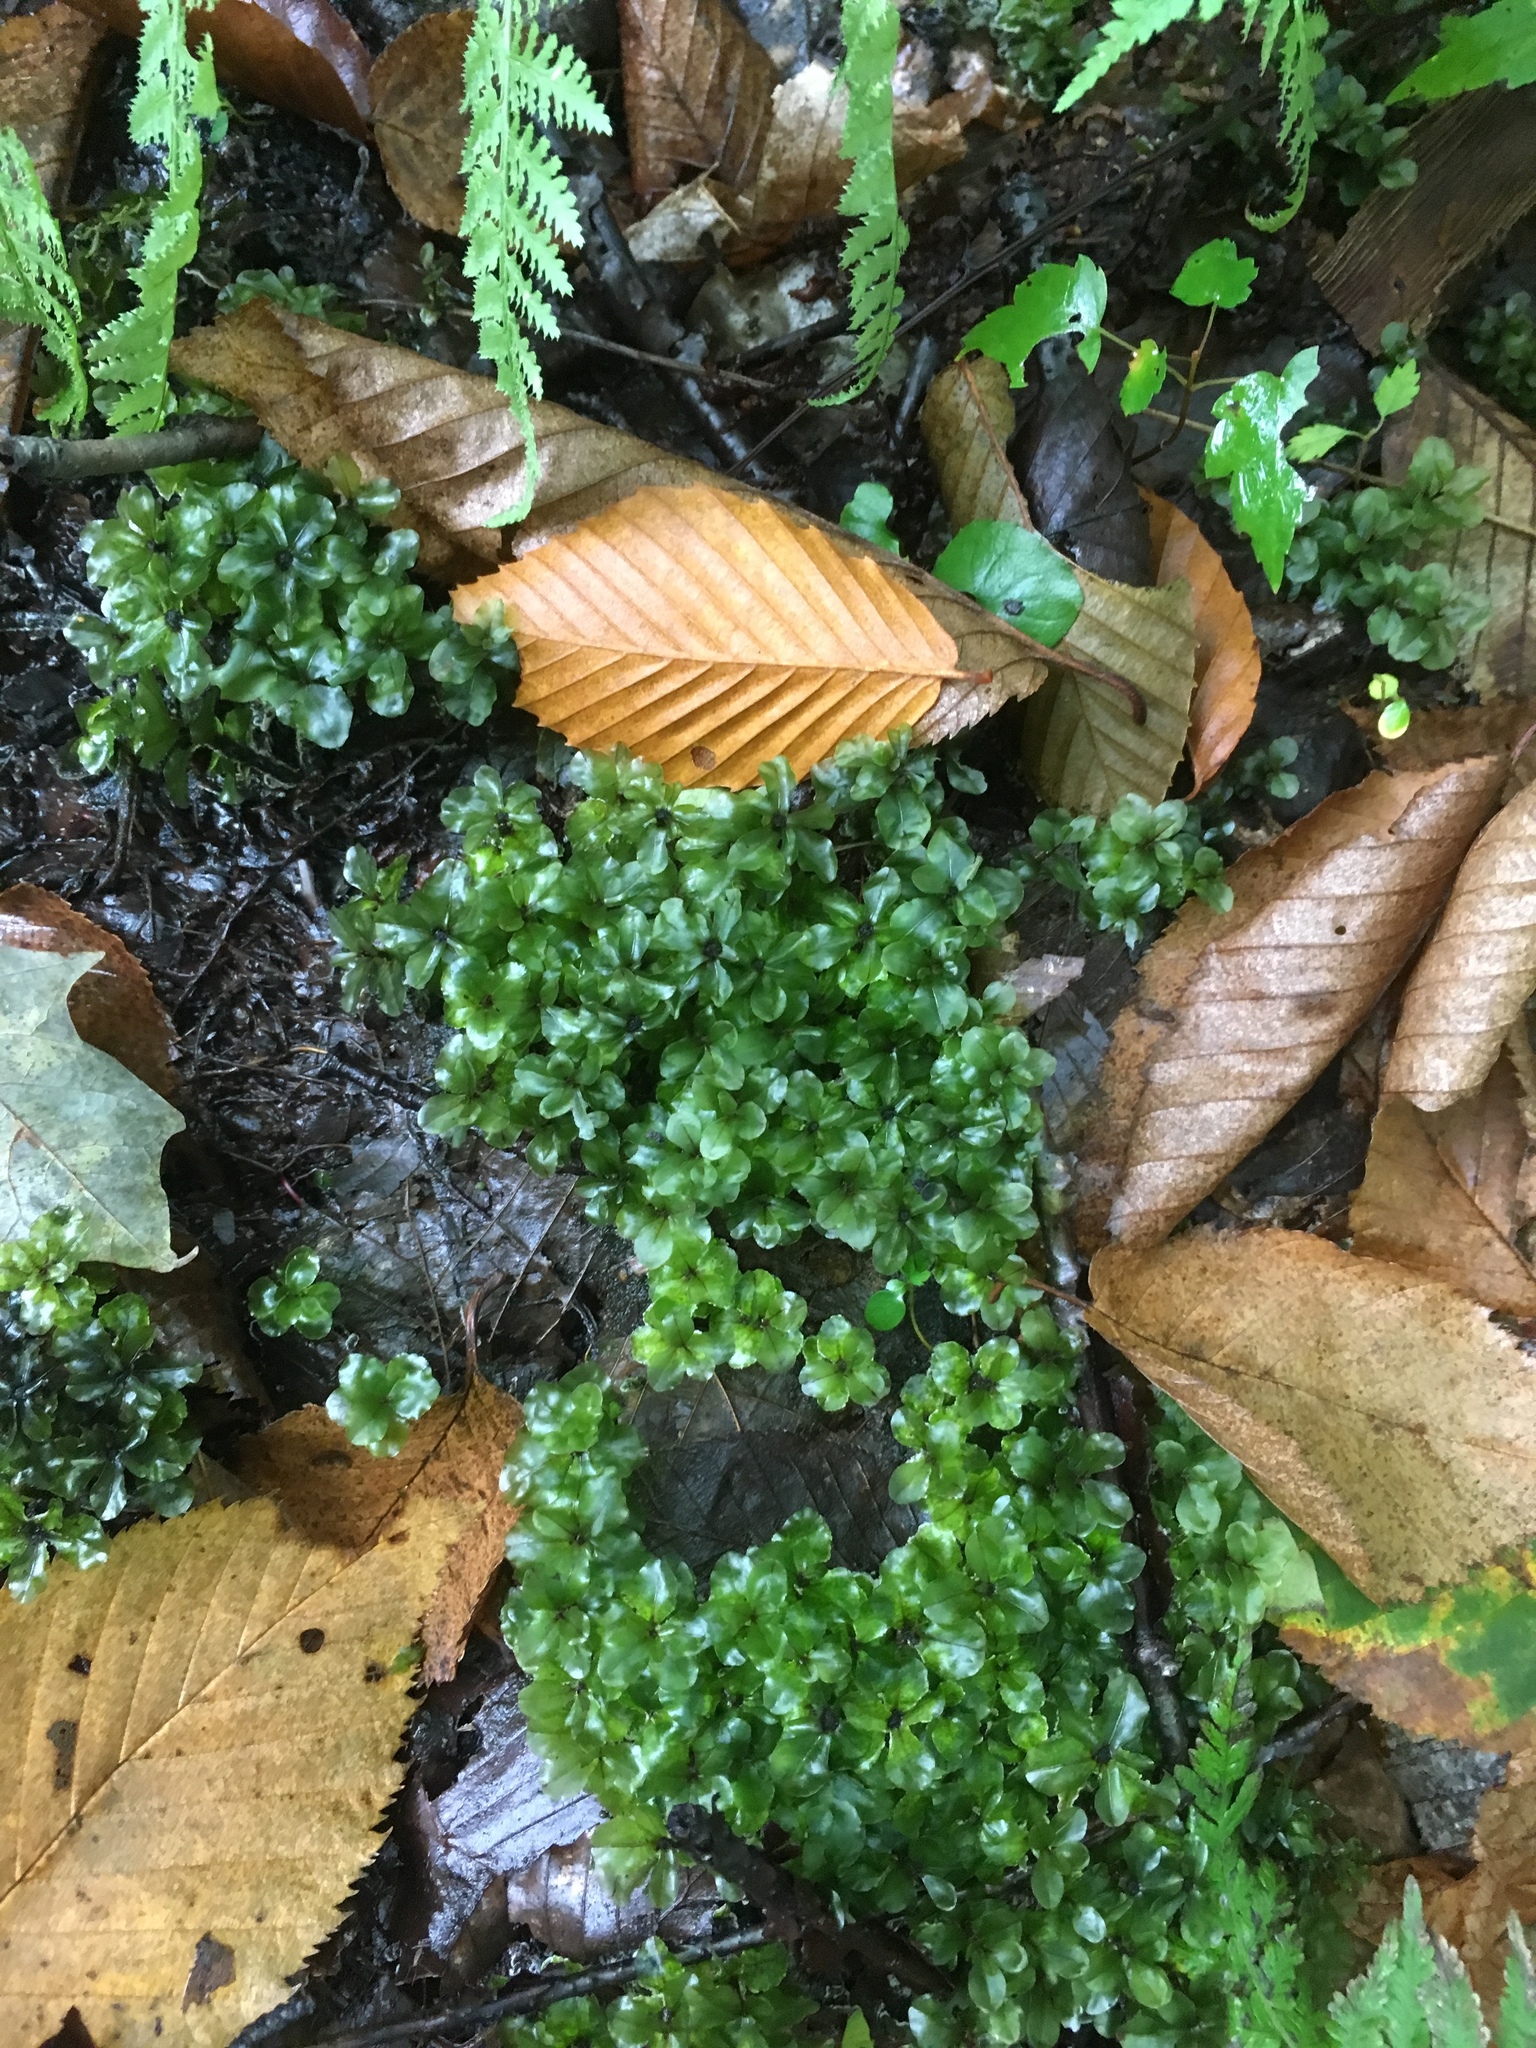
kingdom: Plantae
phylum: Bryophyta
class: Bryopsida
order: Bryales
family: Mniaceae
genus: Rhizomnium
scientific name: Rhizomnium
